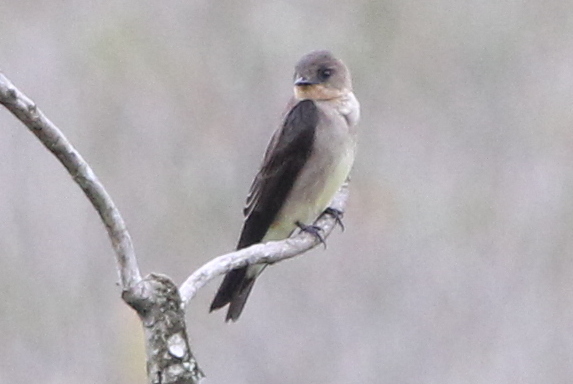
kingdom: Animalia
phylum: Chordata
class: Aves
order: Passeriformes
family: Hirundinidae
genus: Stelgidopteryx
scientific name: Stelgidopteryx ruficollis
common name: Southern rough-winged swallow
